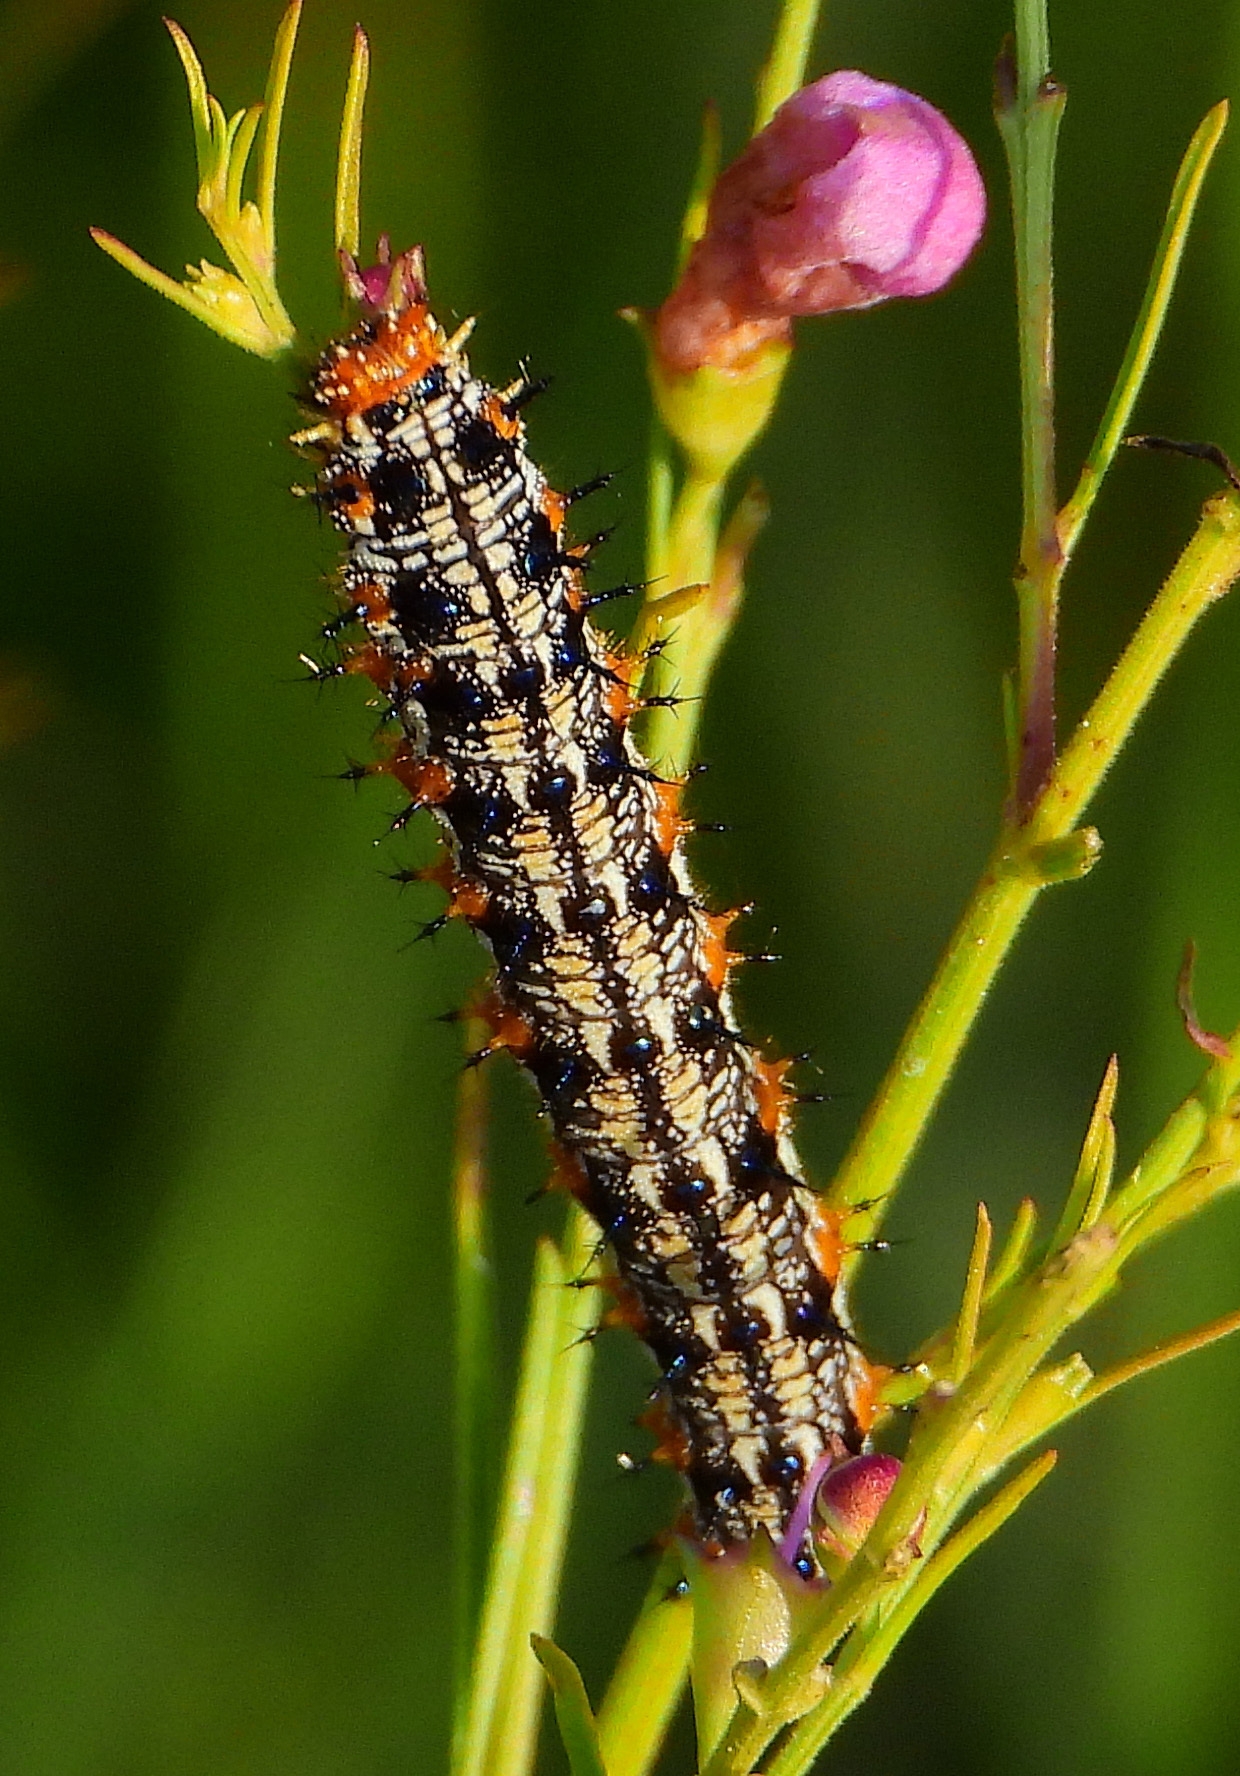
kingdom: Animalia
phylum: Arthropoda
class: Insecta
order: Lepidoptera
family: Nymphalidae
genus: Junonia
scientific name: Junonia coenia
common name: Common buckeye
